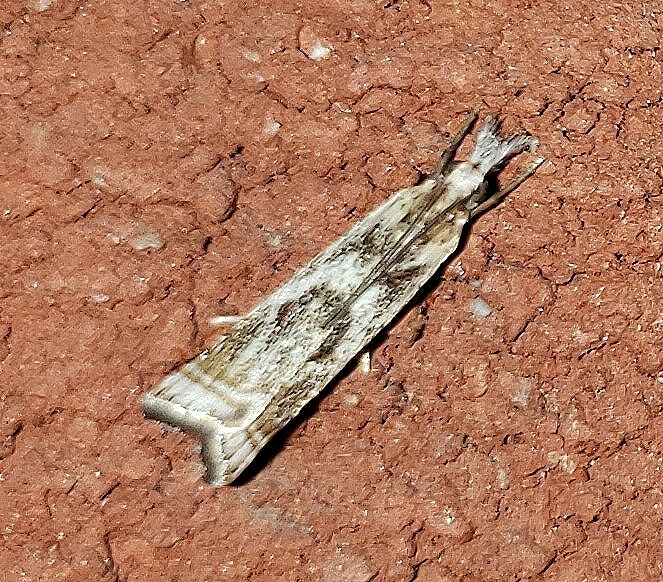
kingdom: Animalia
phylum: Arthropoda
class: Insecta
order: Lepidoptera
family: Crambidae
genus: Microcrambus
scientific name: Microcrambus elegans
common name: Elegant grass-veneer
